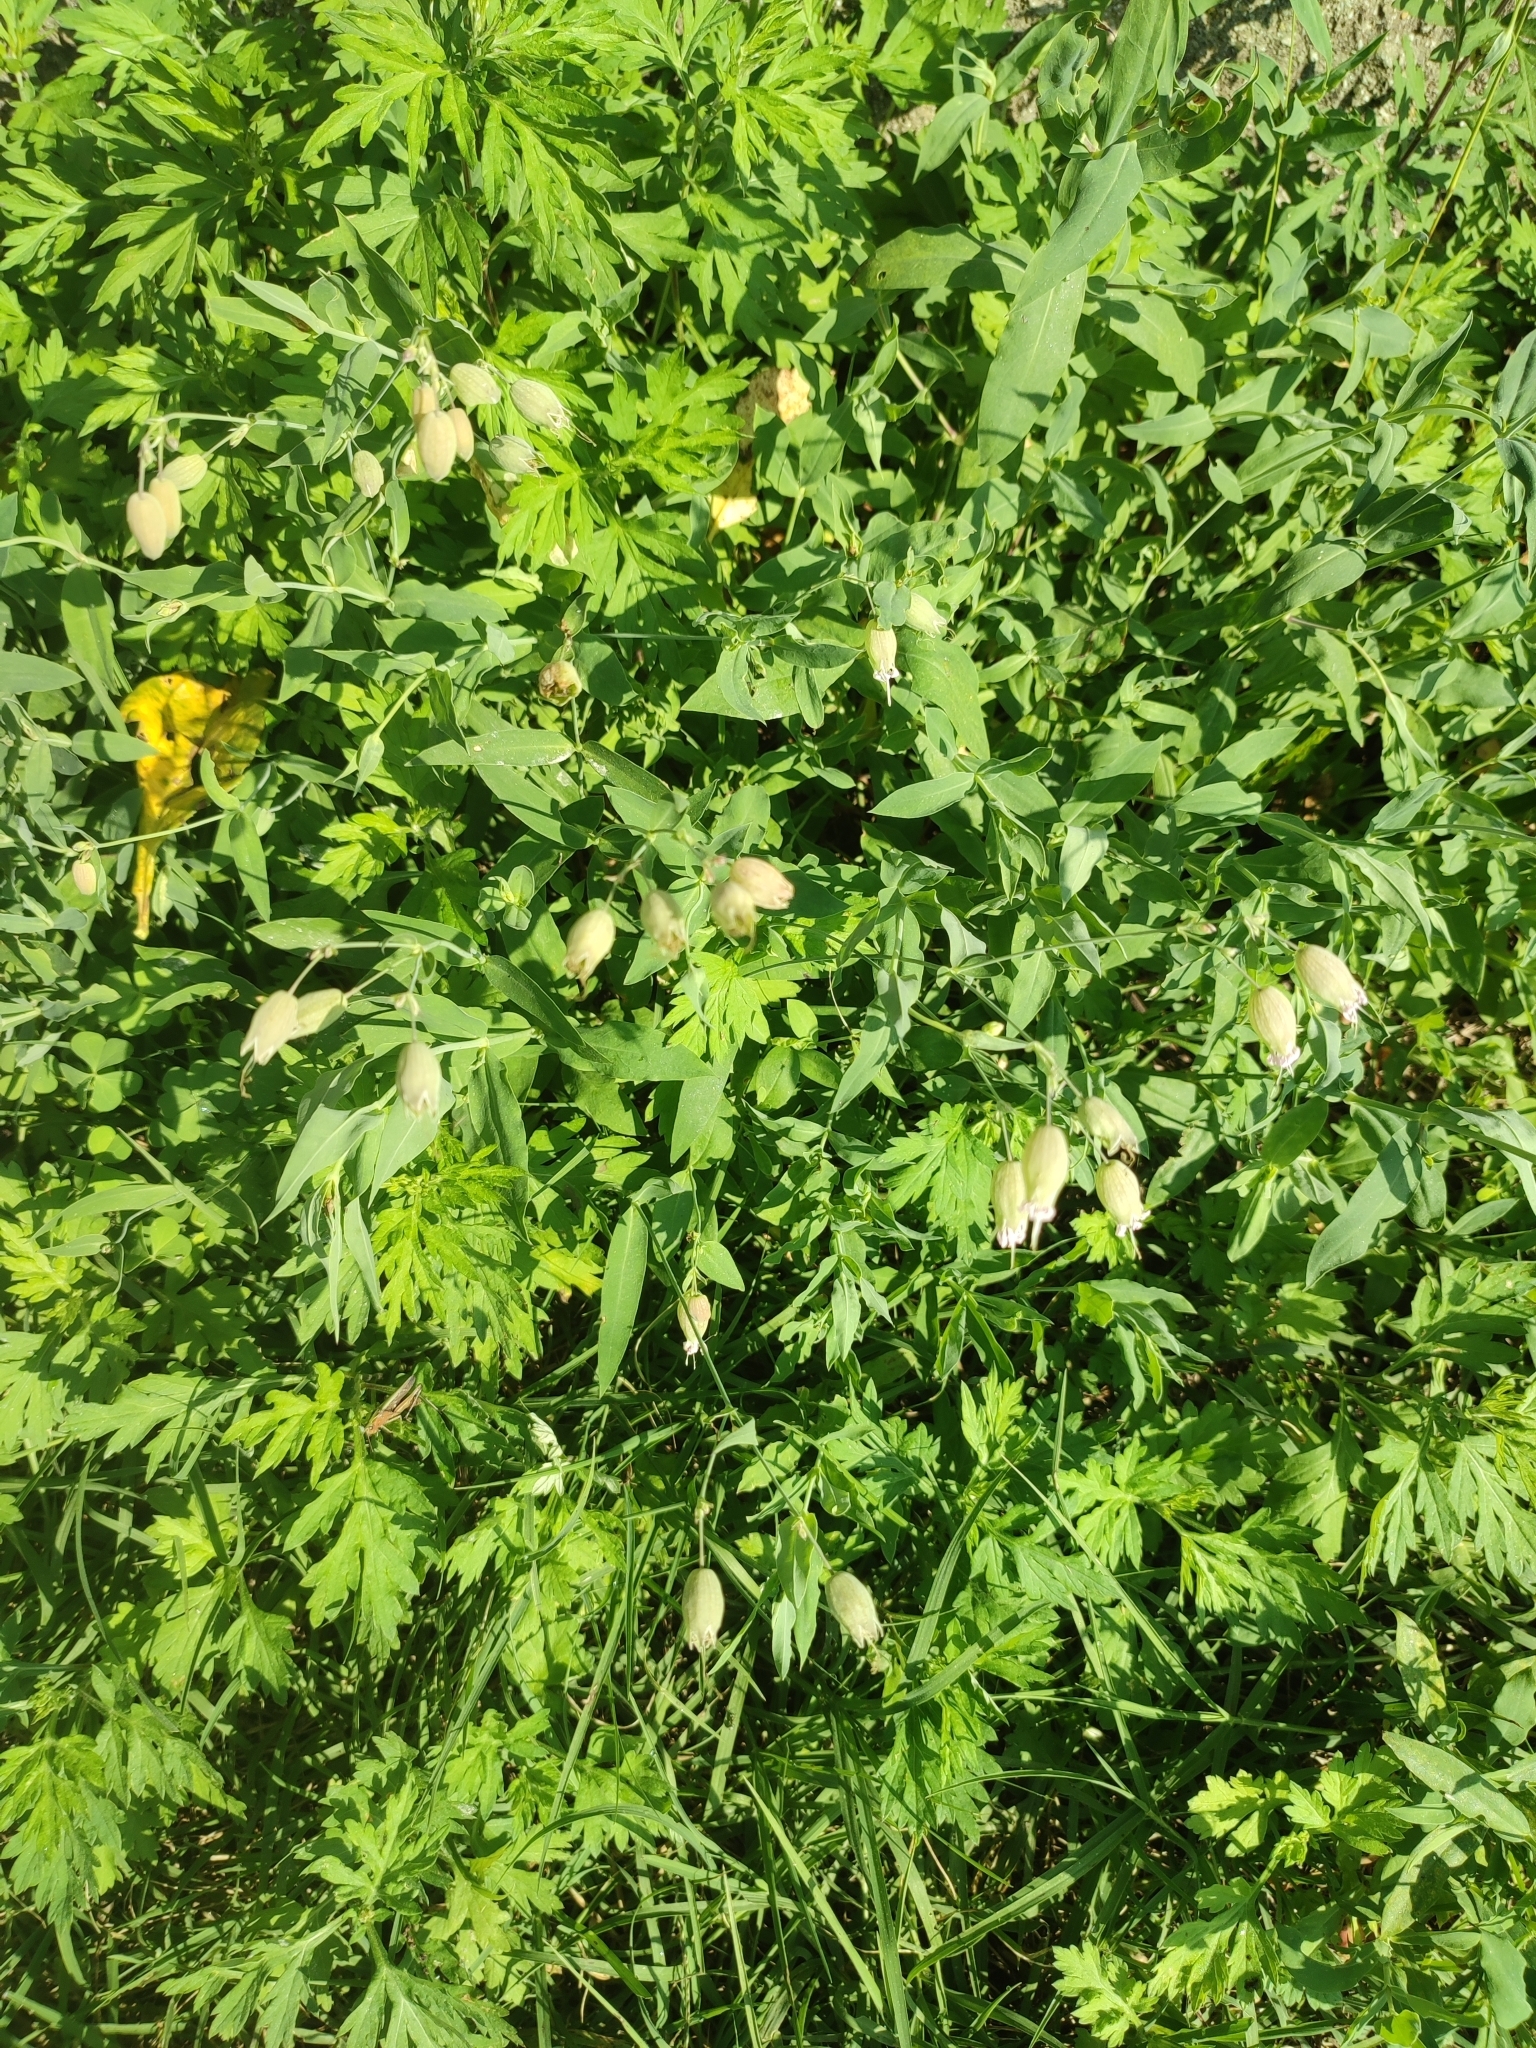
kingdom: Plantae
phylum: Tracheophyta
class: Magnoliopsida
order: Caryophyllales
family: Caryophyllaceae
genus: Silene
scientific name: Silene vulgaris
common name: Bladder campion
